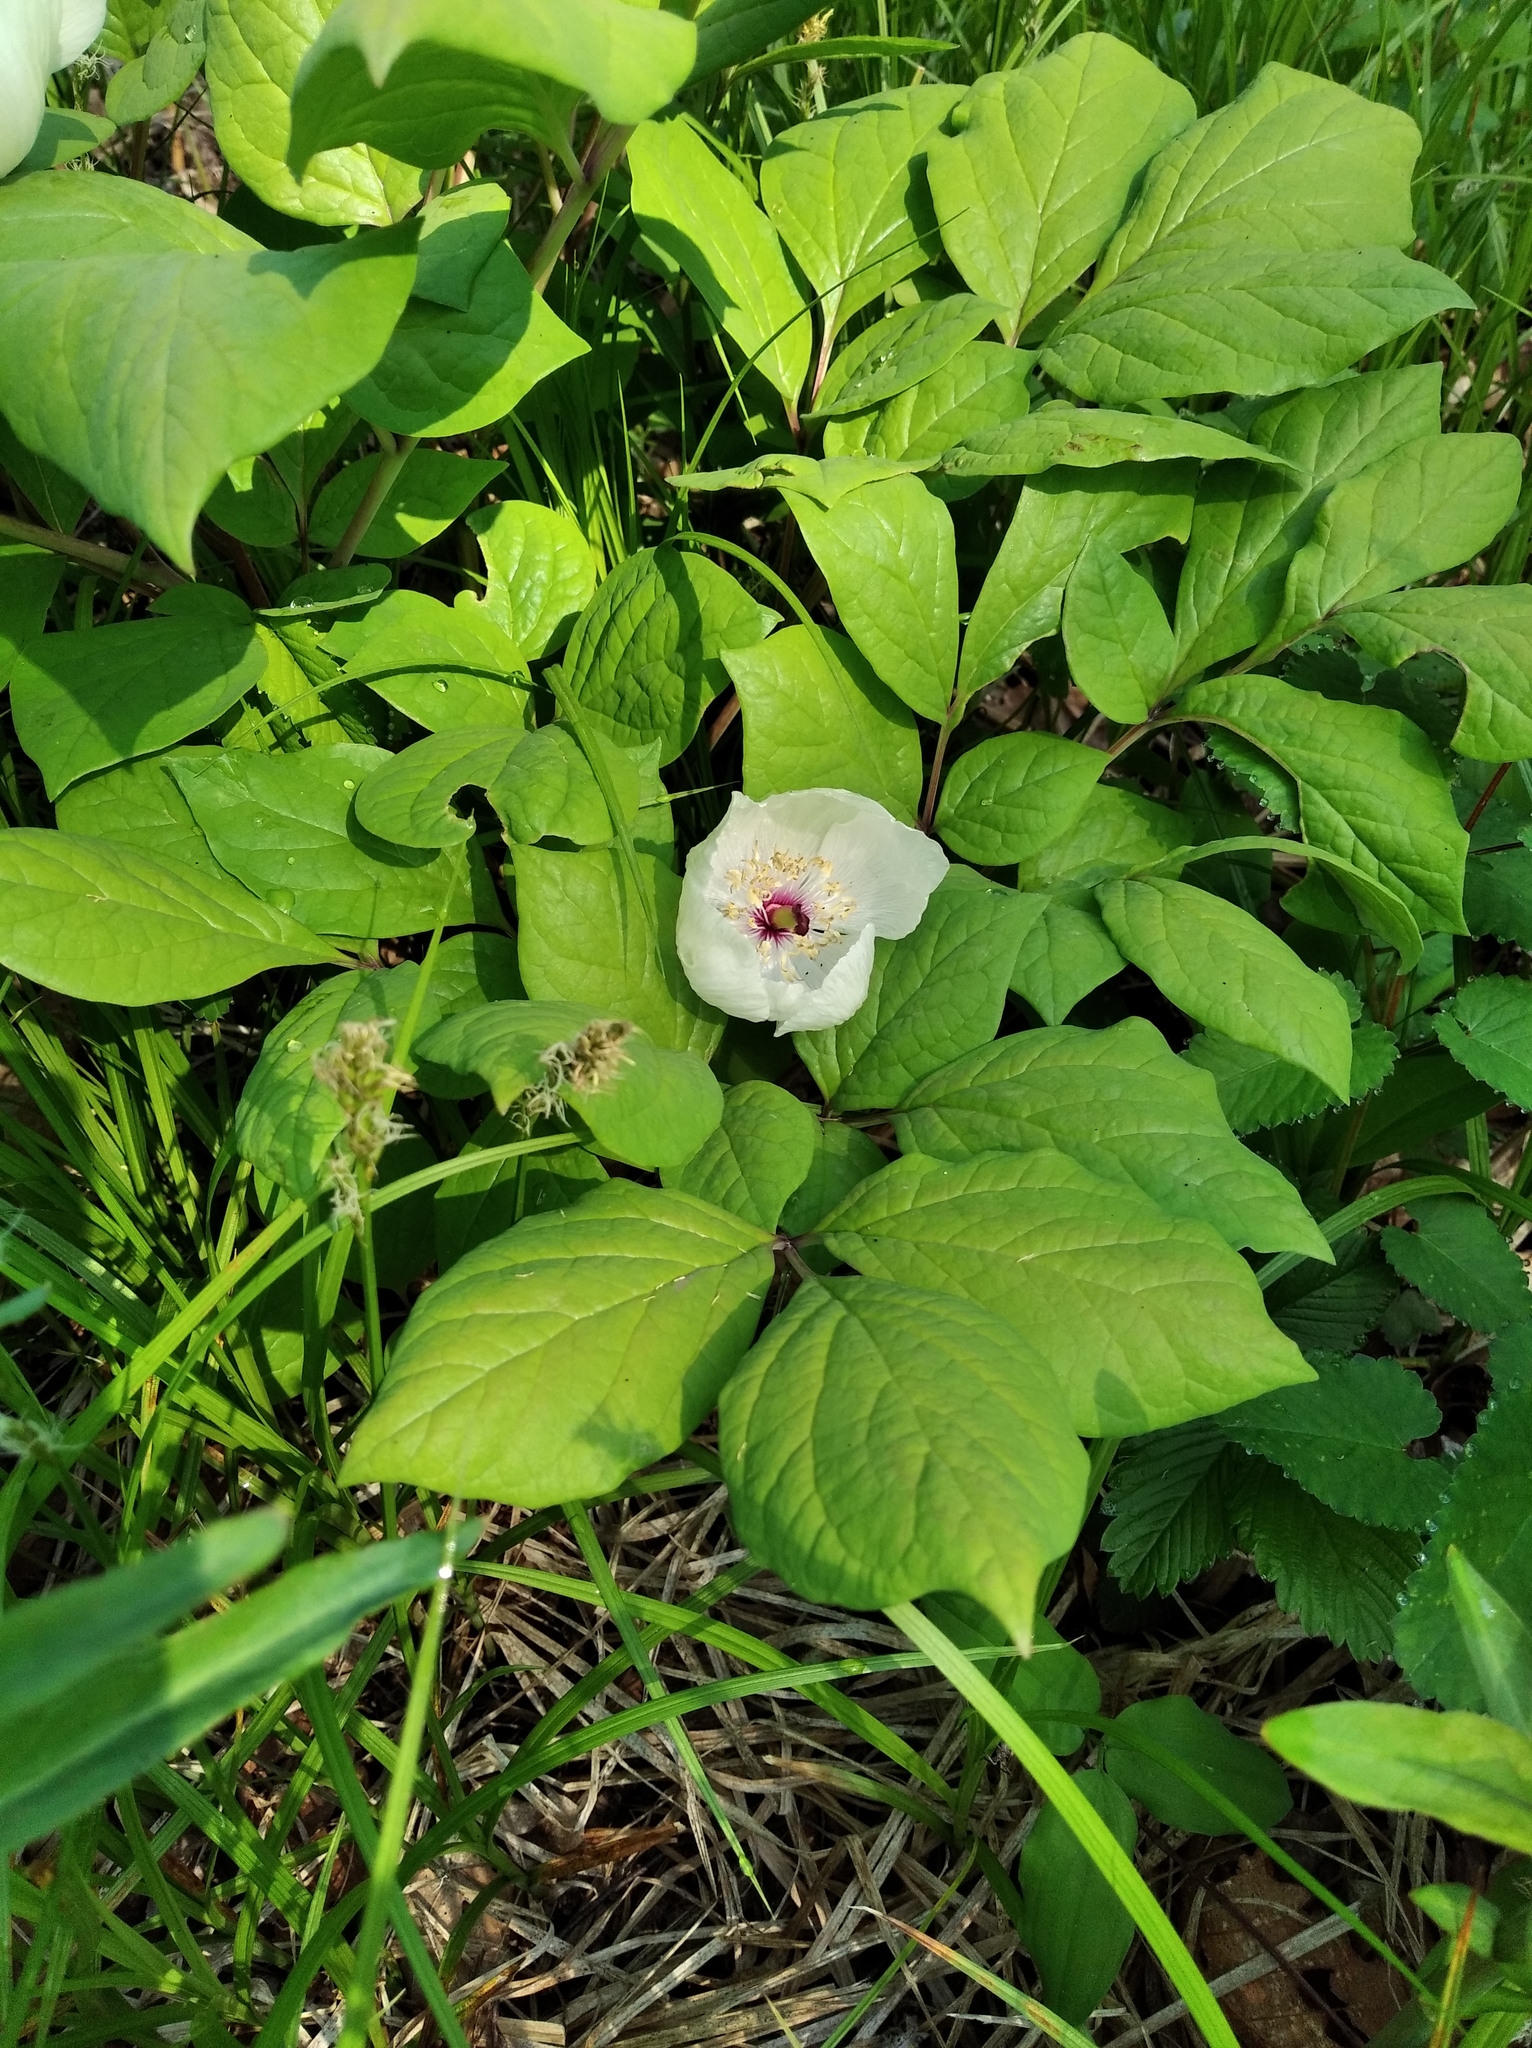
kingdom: Plantae
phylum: Tracheophyta
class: Magnoliopsida
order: Saxifragales
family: Paeoniaceae
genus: Paeonia
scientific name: Paeonia obovata
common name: Chinese peony
